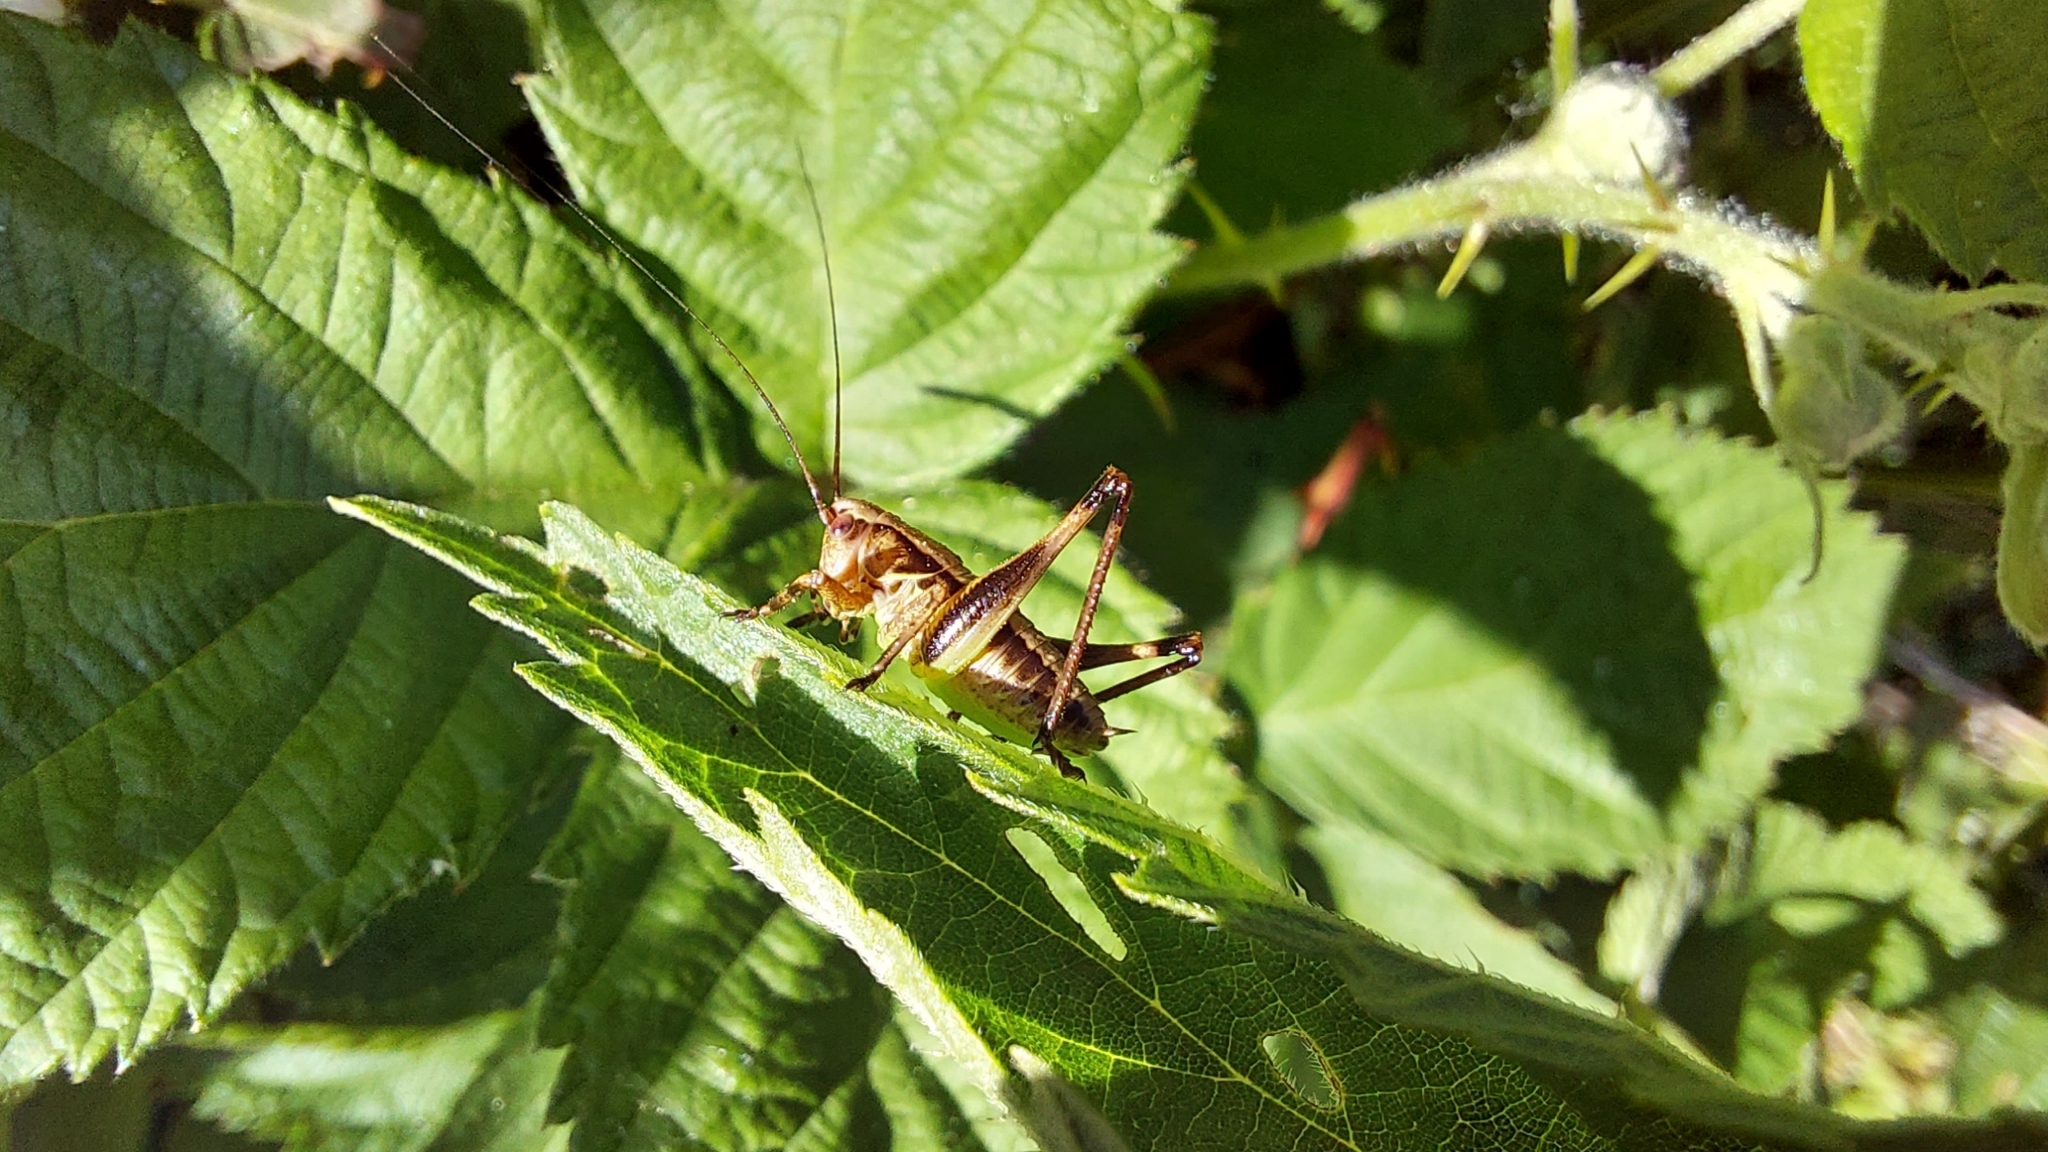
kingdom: Animalia
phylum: Arthropoda
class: Insecta
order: Orthoptera
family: Tettigoniidae
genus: Pholidoptera
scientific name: Pholidoptera griseoaptera
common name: Dark bush-cricket
